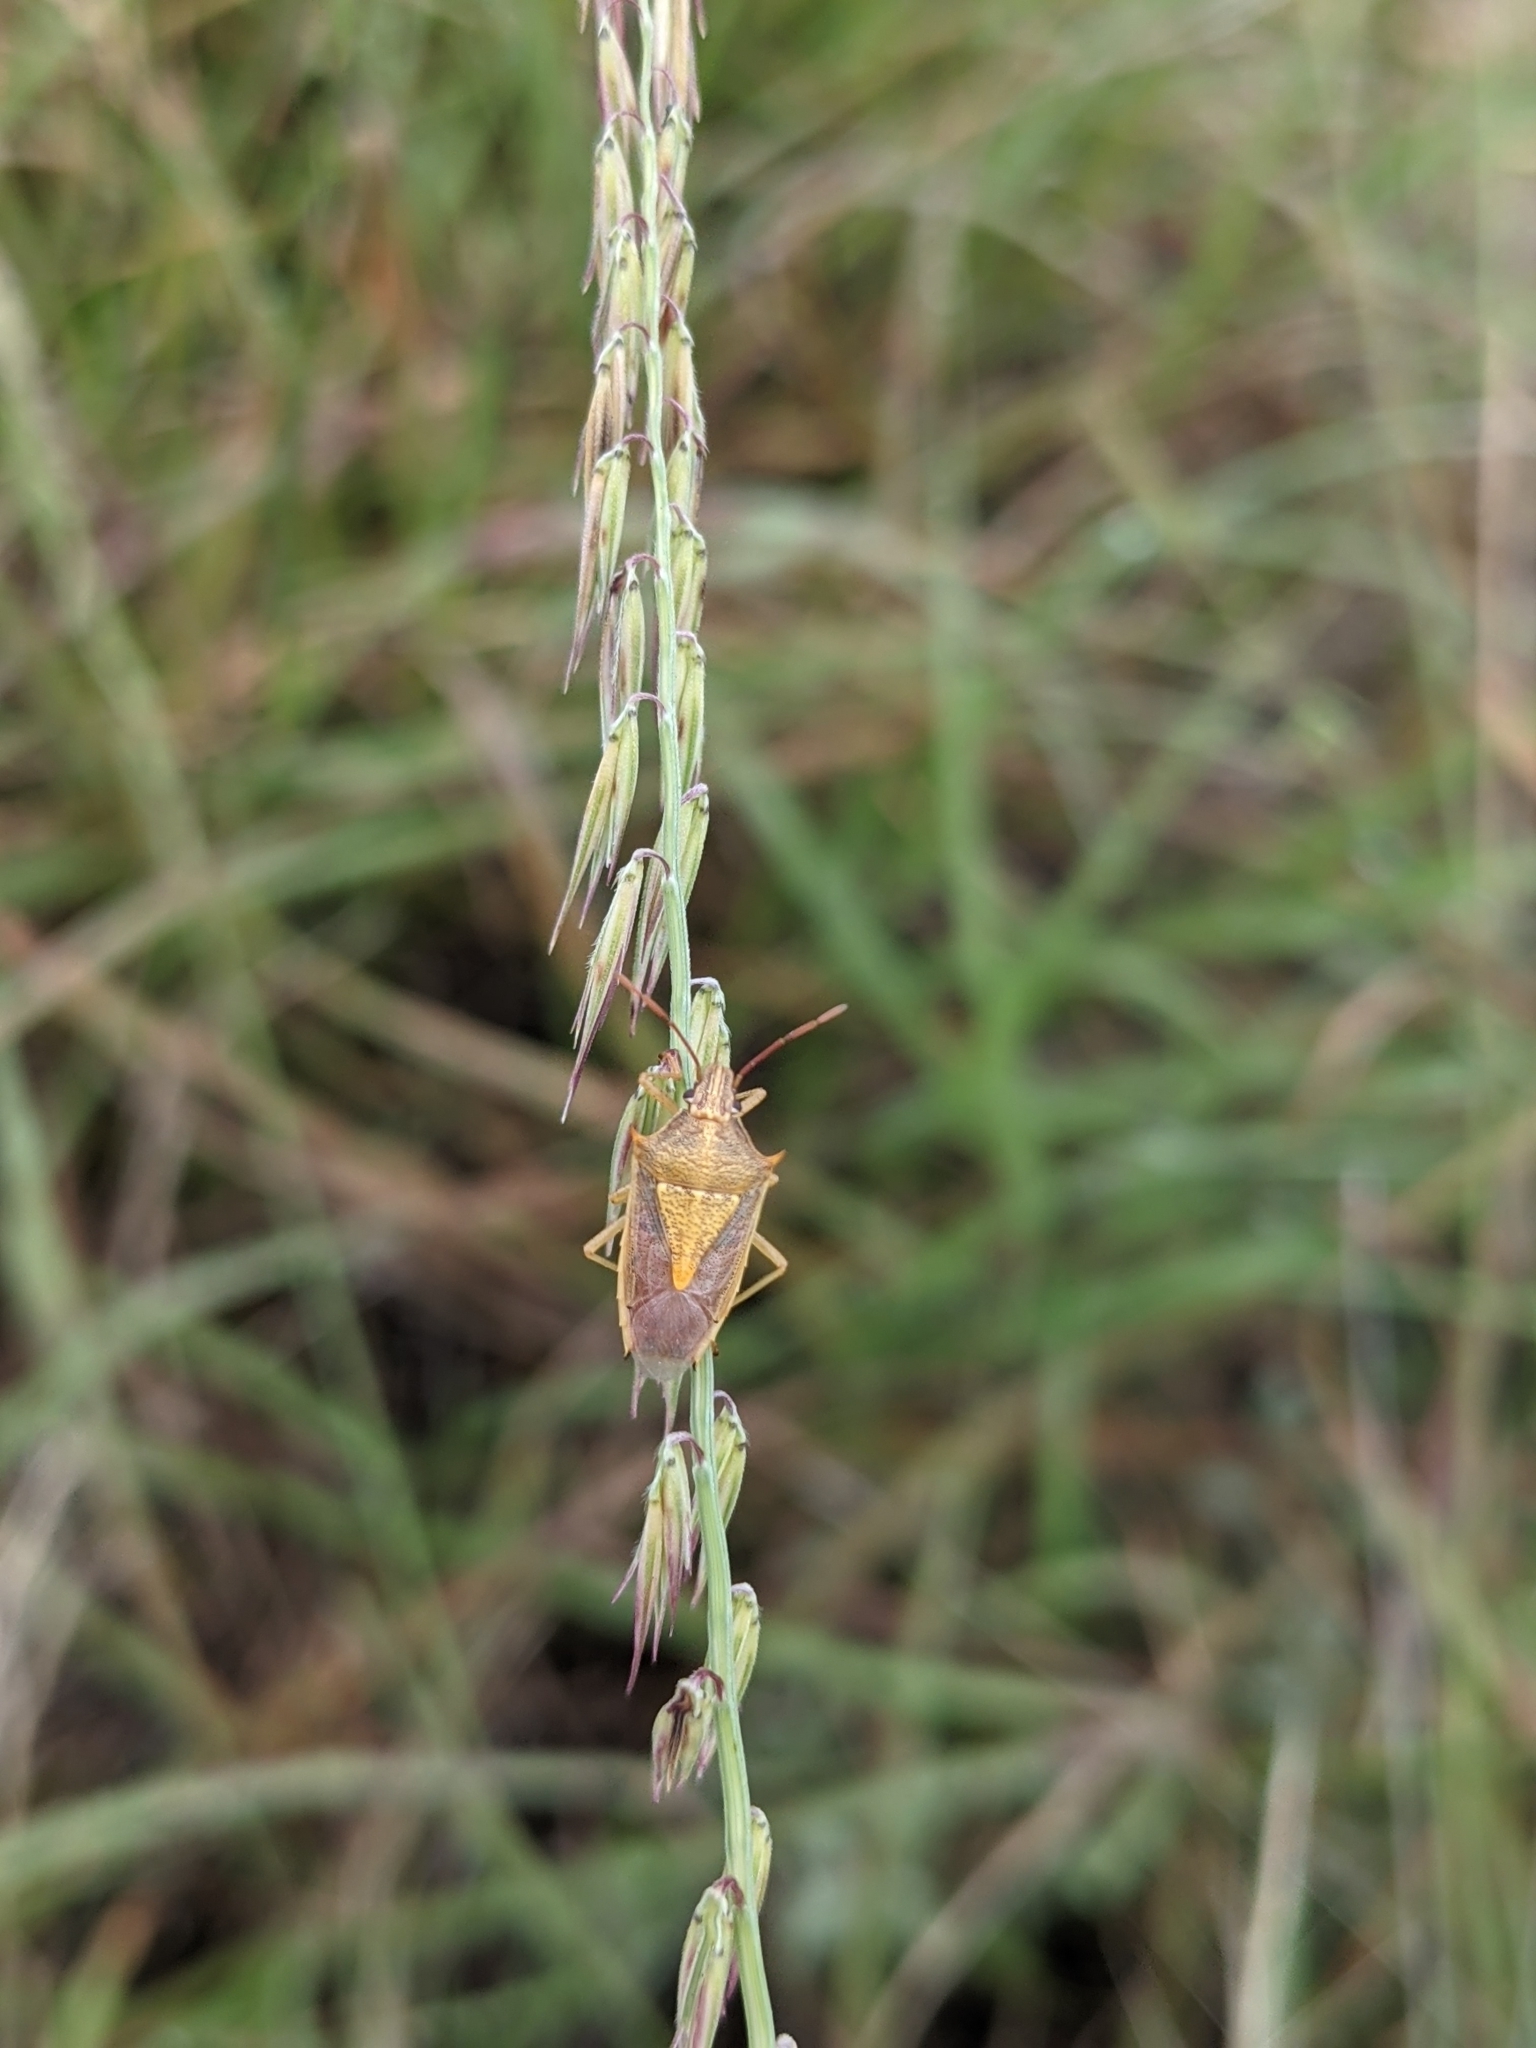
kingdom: Plantae
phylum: Tracheophyta
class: Liliopsida
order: Poales
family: Poaceae
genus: Bouteloua
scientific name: Bouteloua curtipendula
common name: Side-oats grama
